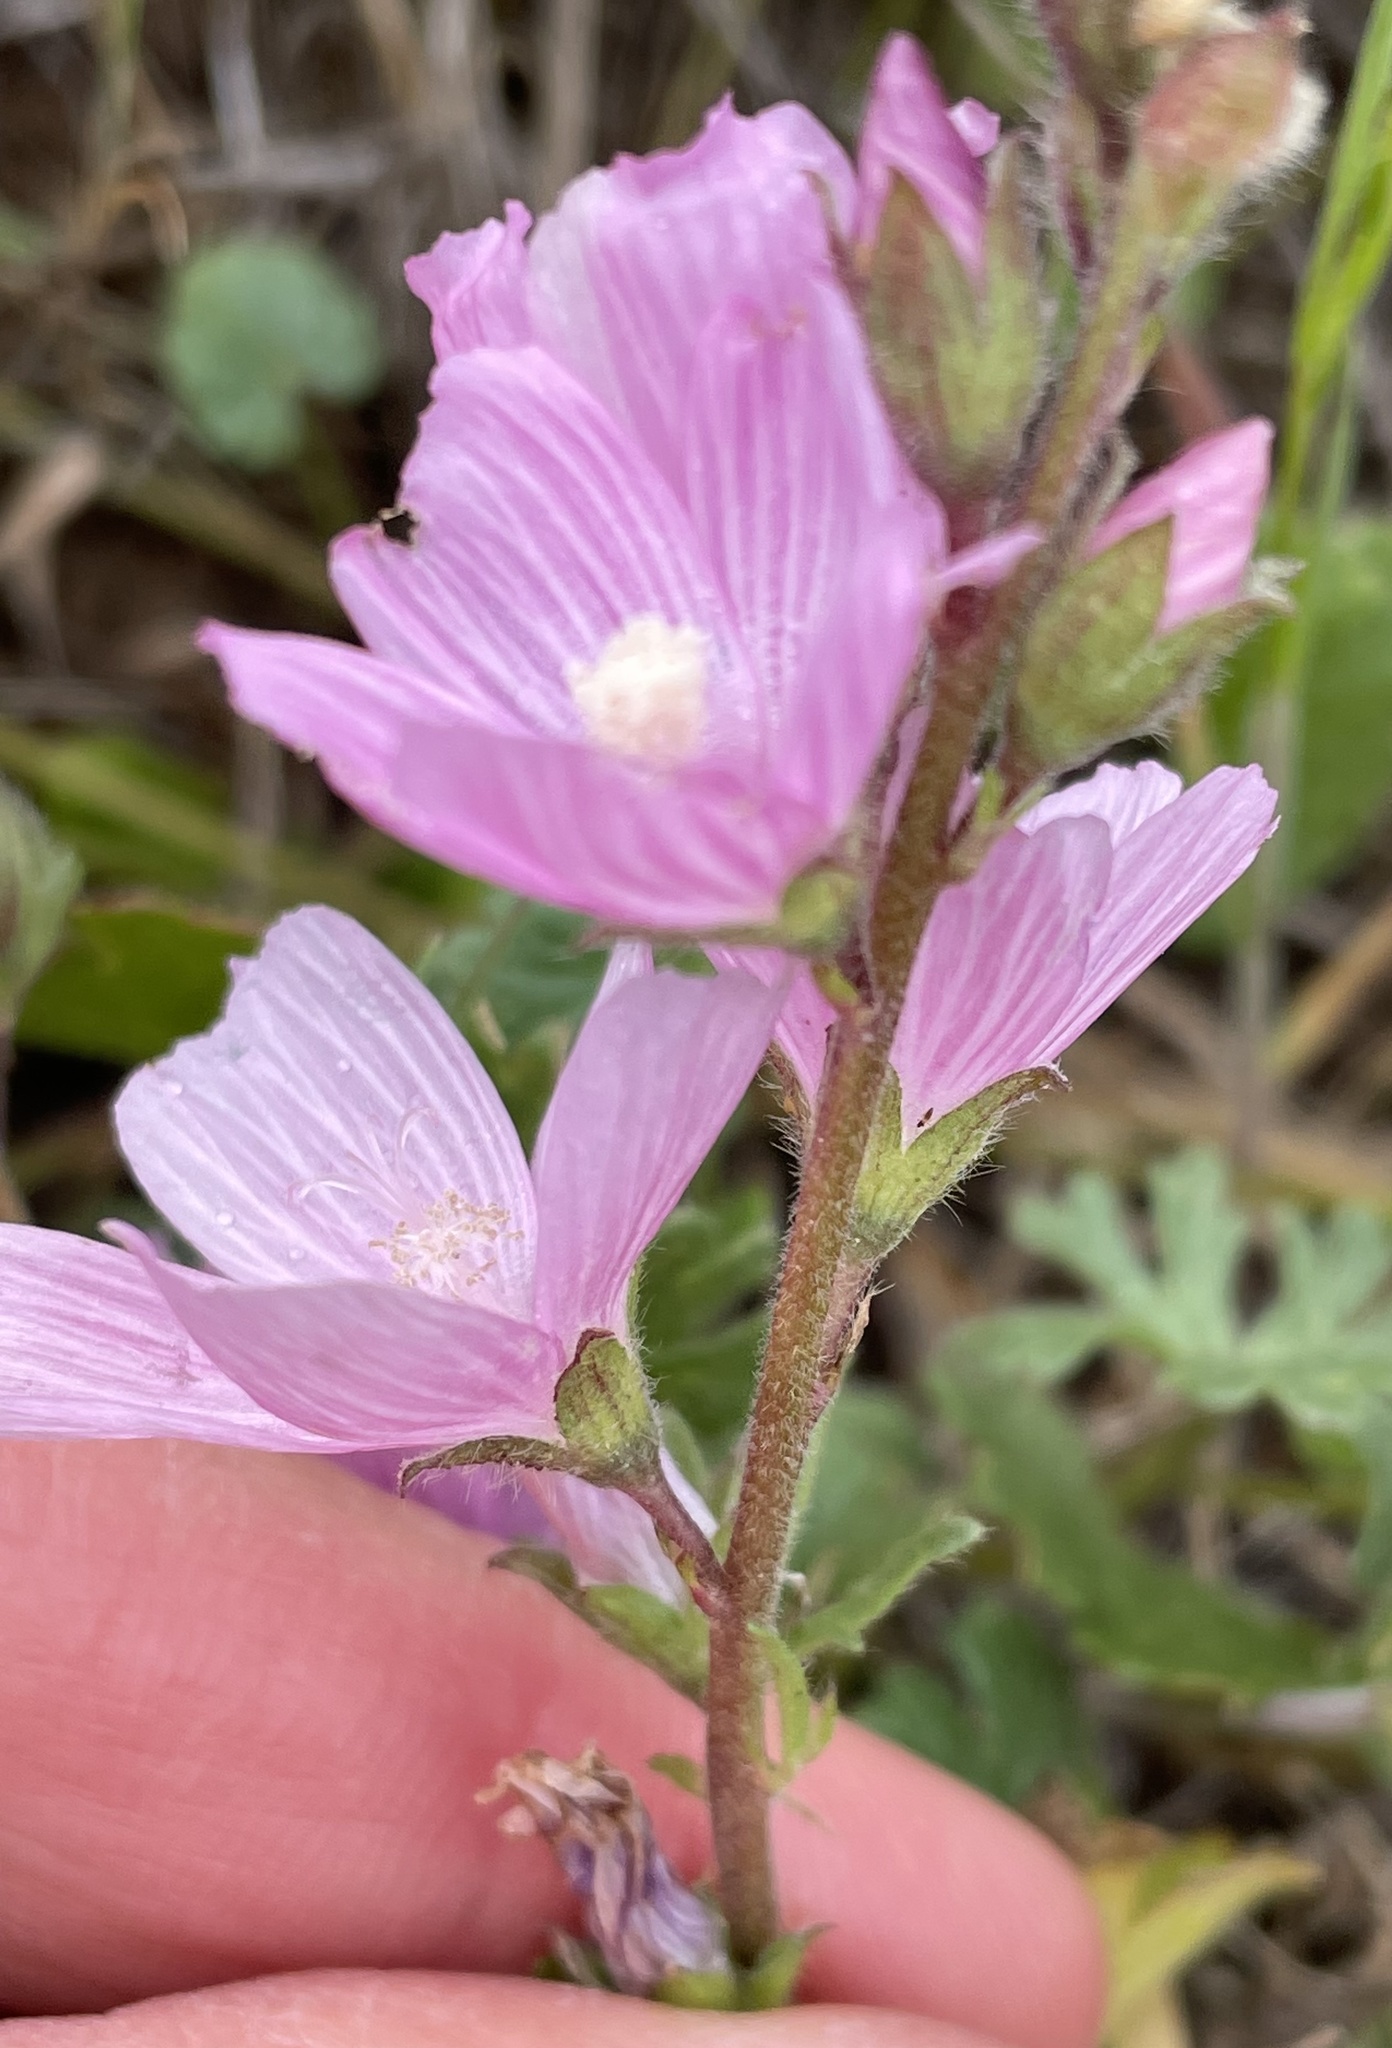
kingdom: Plantae
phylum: Tracheophyta
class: Magnoliopsida
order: Malvales
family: Malvaceae
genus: Sidalcea
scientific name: Sidalcea malviflora
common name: Greek mallow
